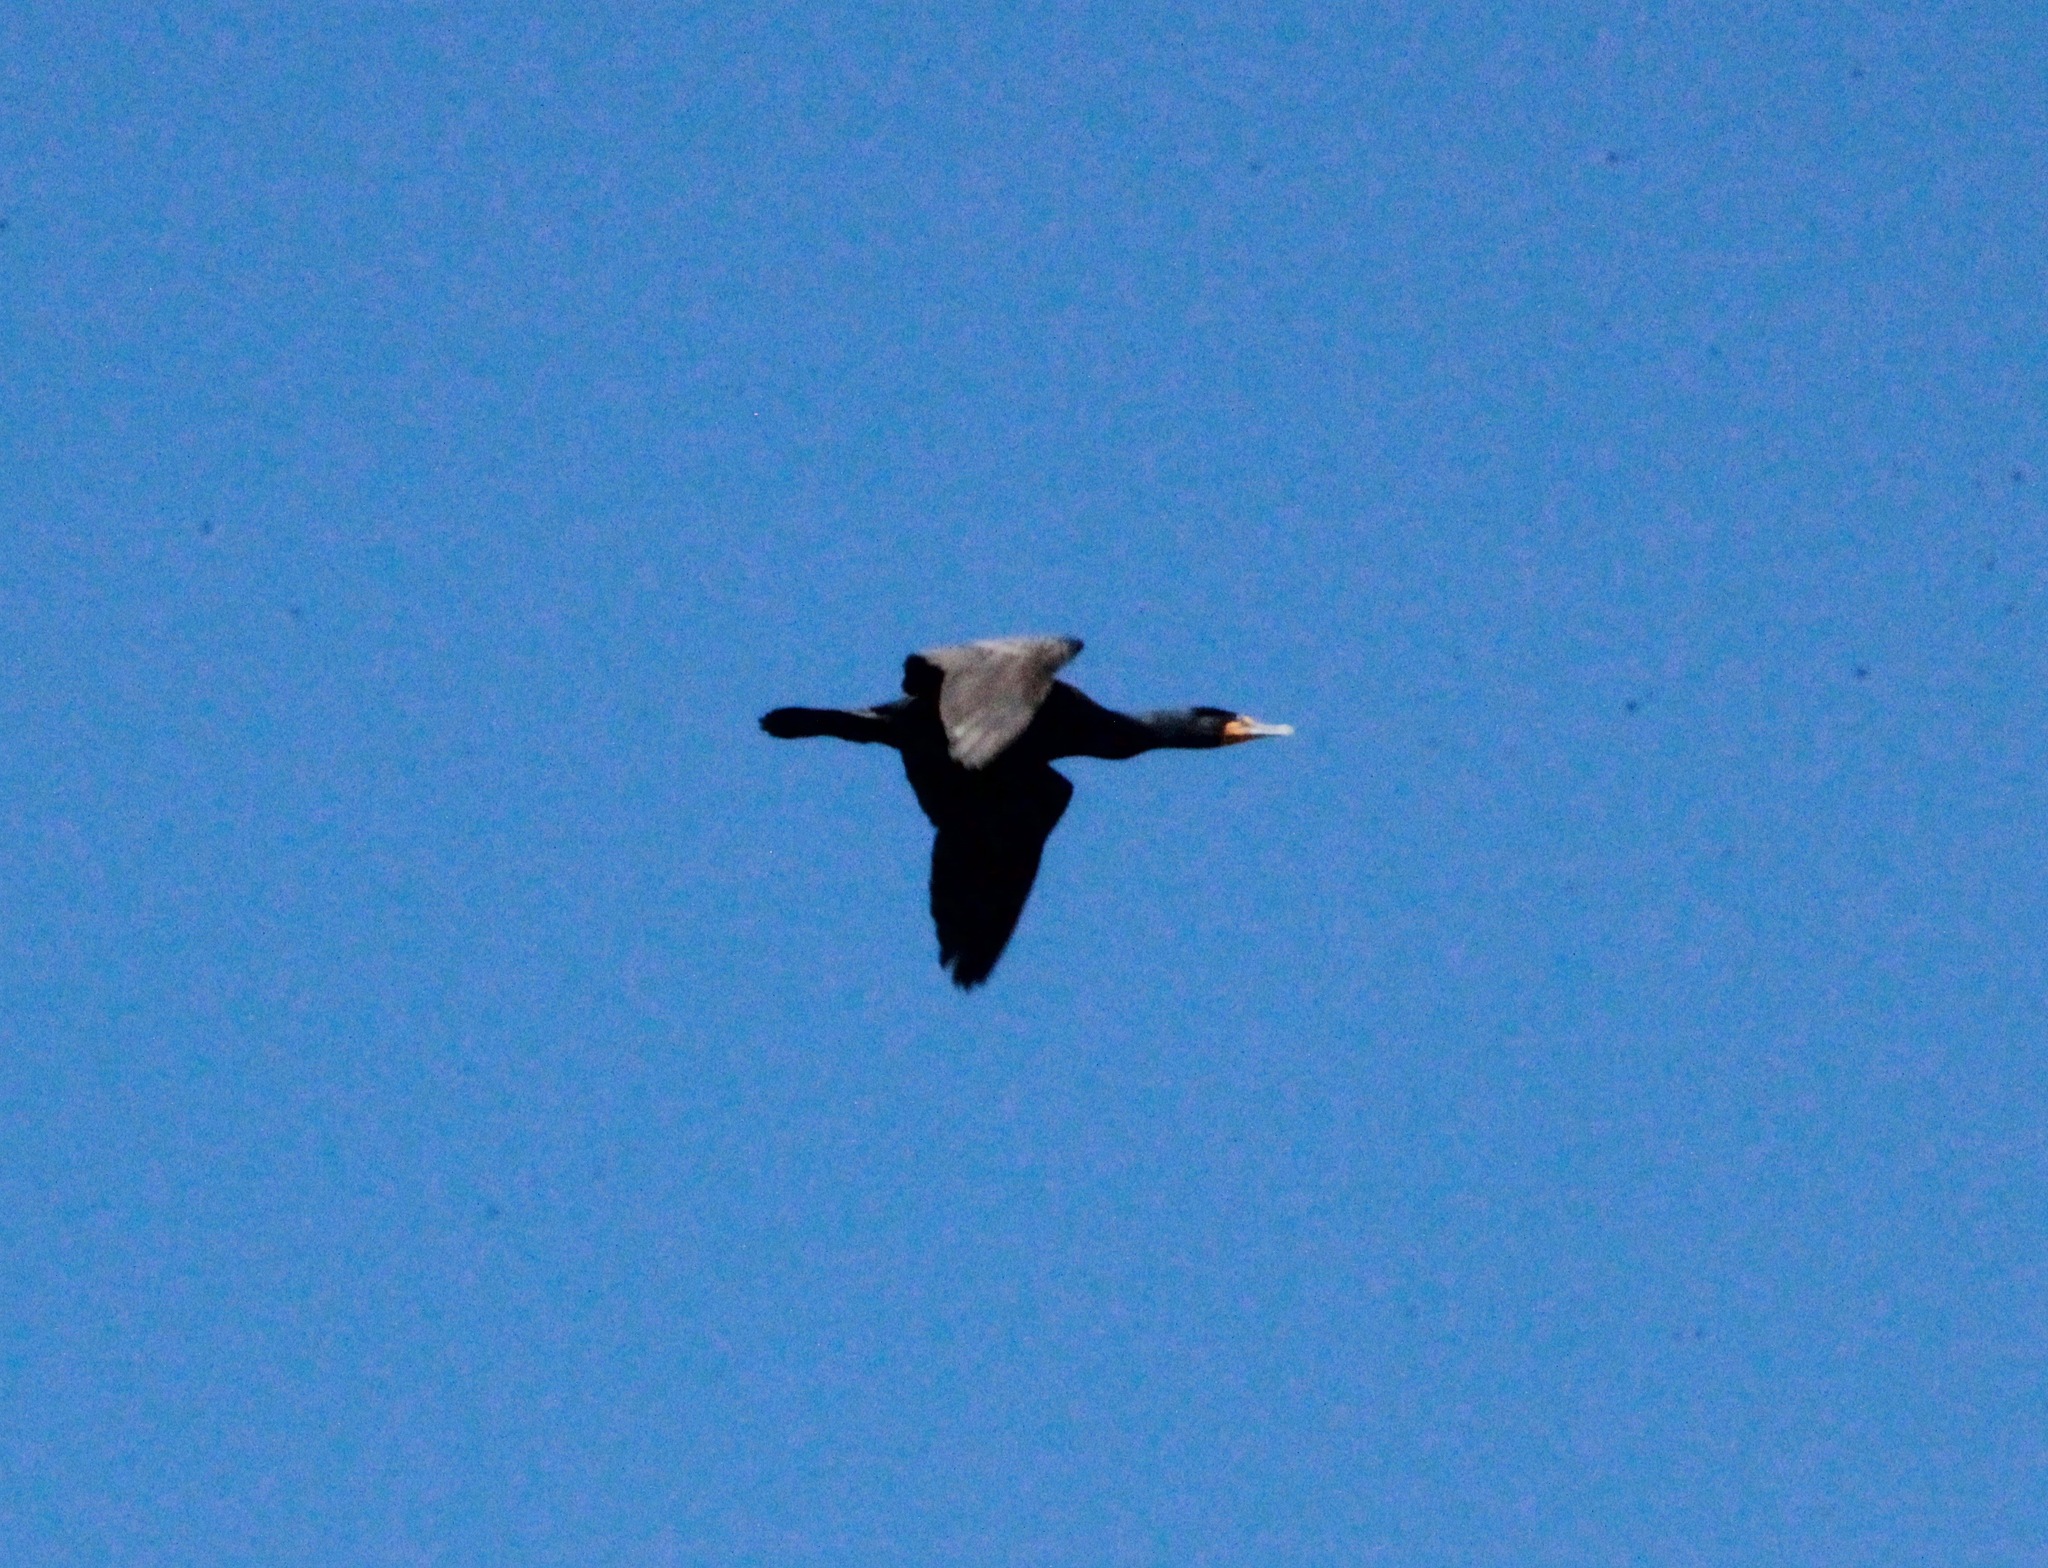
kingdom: Animalia
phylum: Chordata
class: Aves
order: Suliformes
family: Phalacrocoracidae
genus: Phalacrocorax
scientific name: Phalacrocorax auritus
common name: Double-crested cormorant
